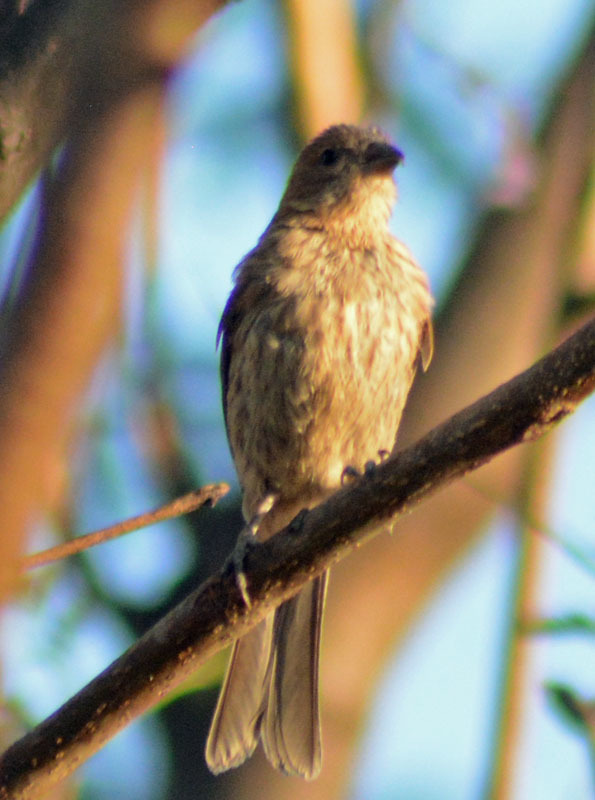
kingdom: Animalia
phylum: Chordata
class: Aves
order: Passeriformes
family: Fringillidae
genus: Haemorhous
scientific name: Haemorhous mexicanus
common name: House finch
